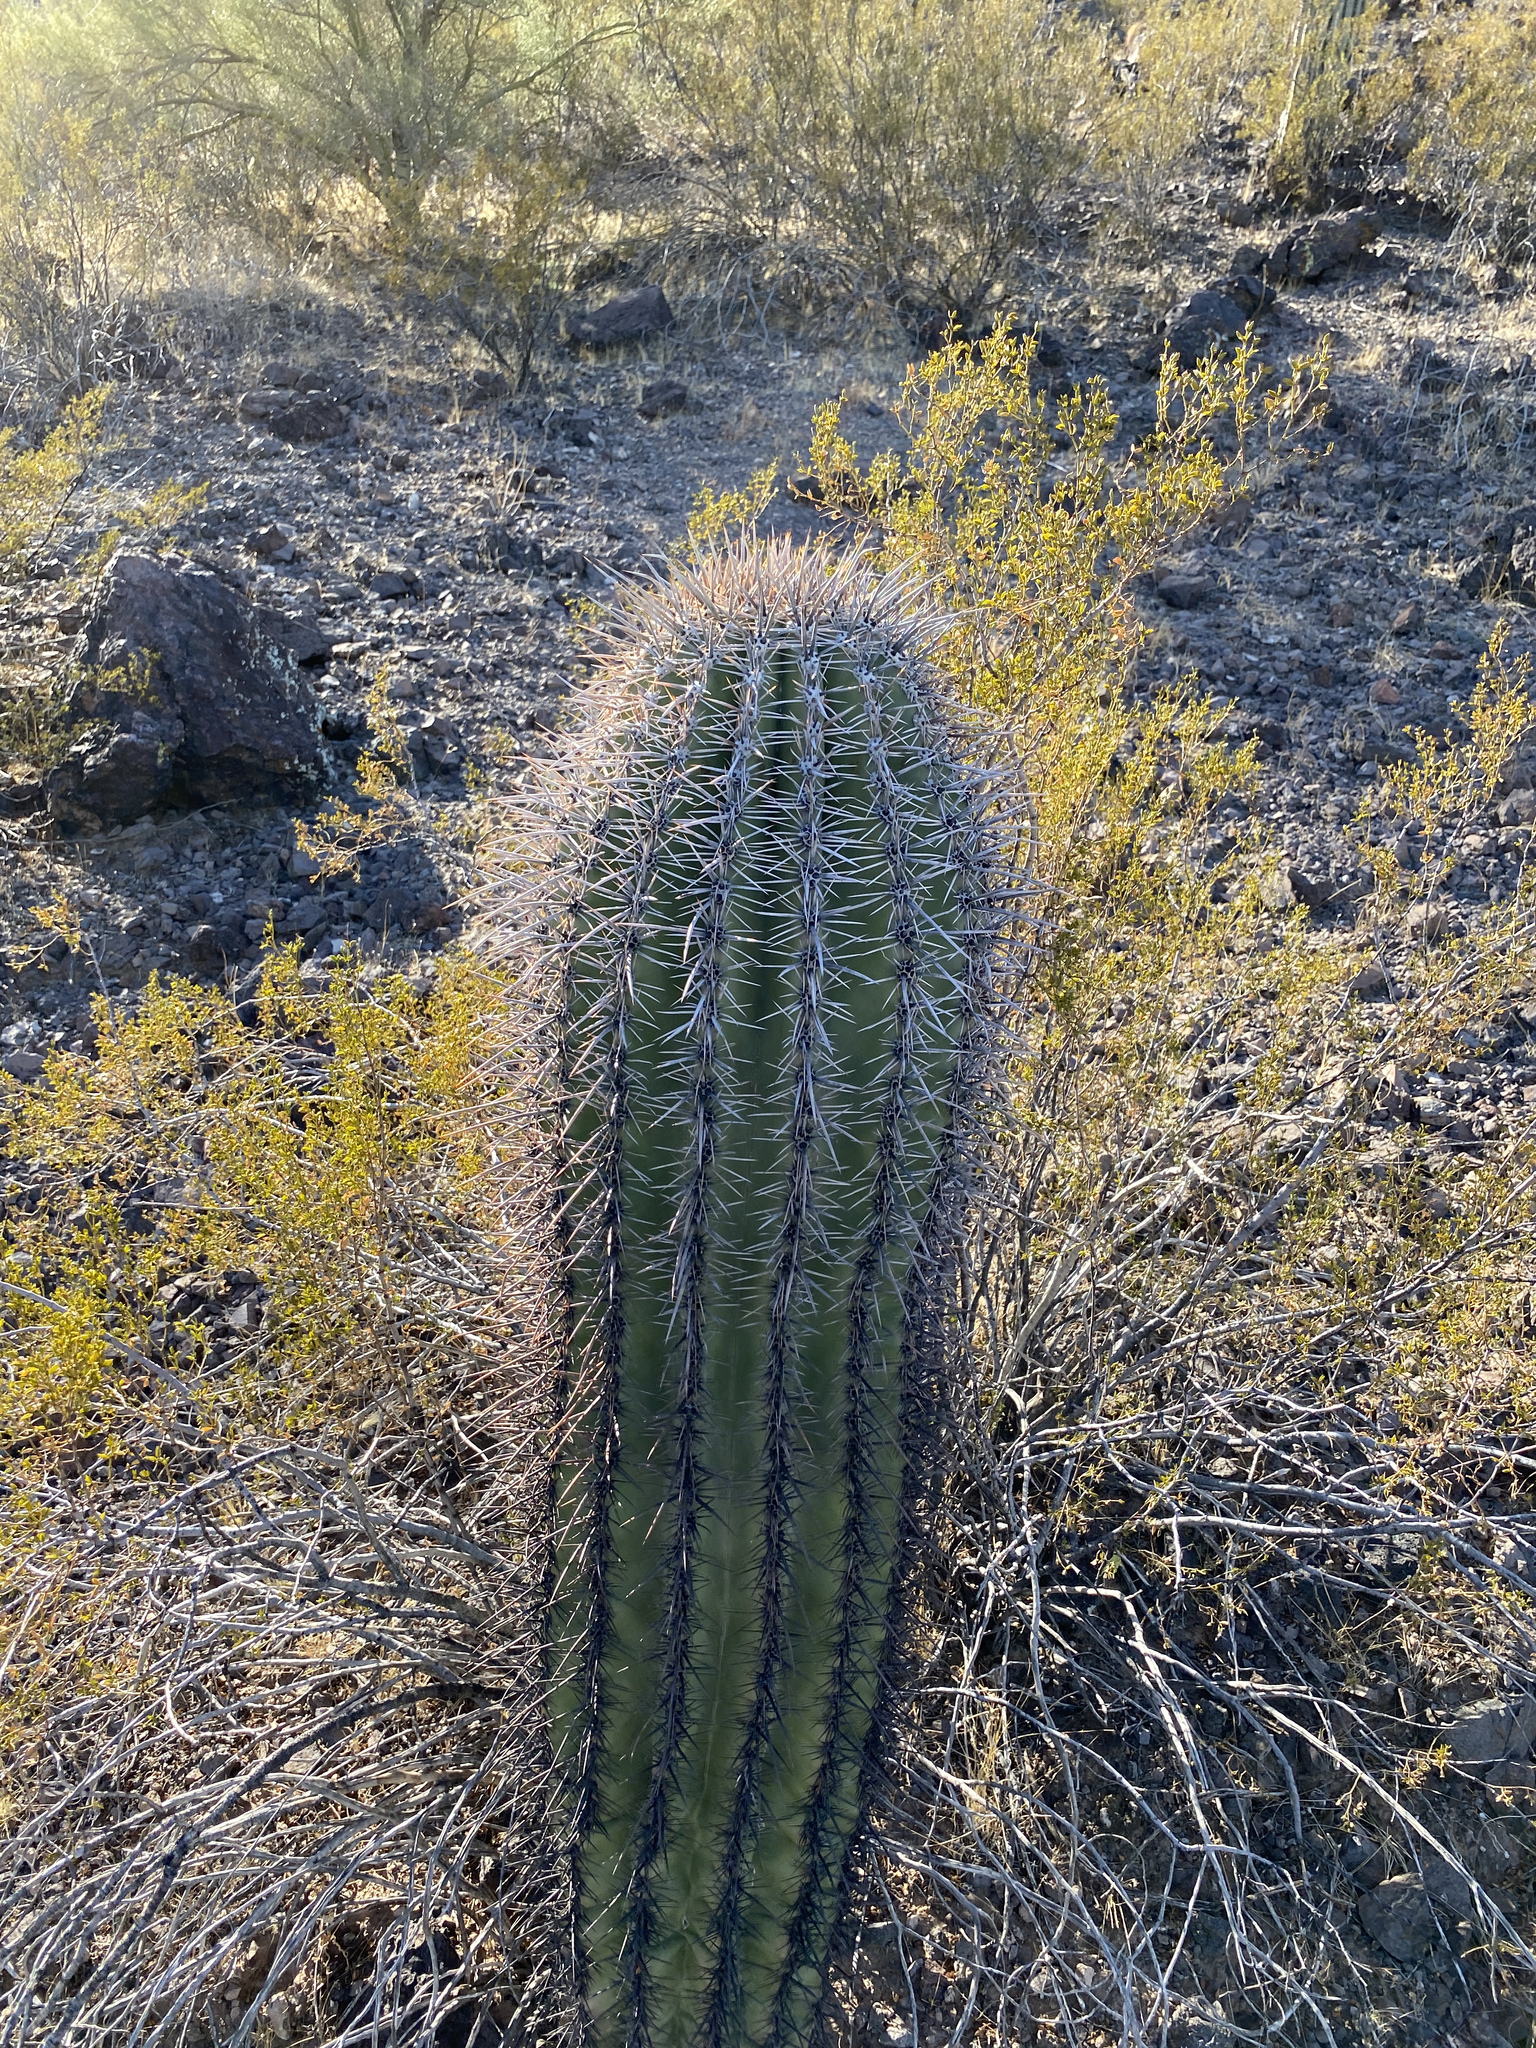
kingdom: Plantae
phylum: Tracheophyta
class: Magnoliopsida
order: Caryophyllales
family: Cactaceae
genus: Carnegiea
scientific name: Carnegiea gigantea
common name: Saguaro
